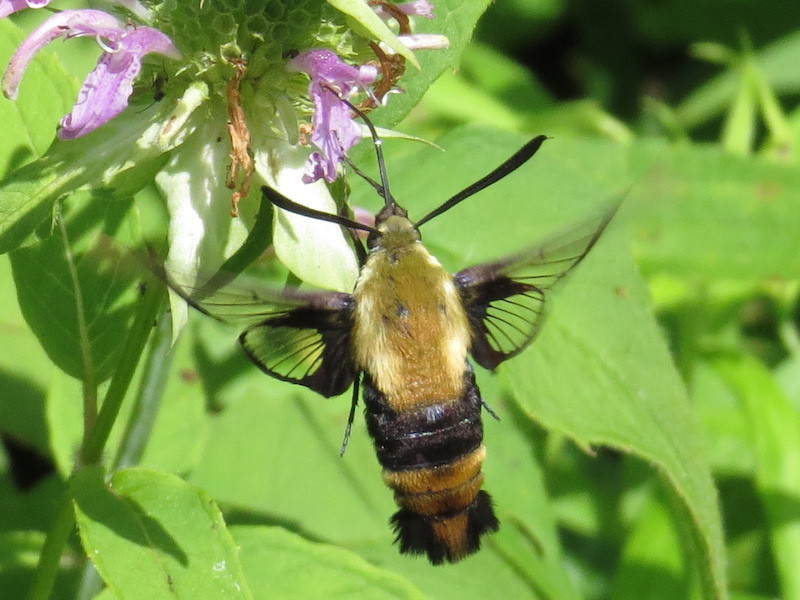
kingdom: Animalia
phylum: Arthropoda
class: Insecta
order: Lepidoptera
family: Sphingidae
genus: Hemaris
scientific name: Hemaris diffinis
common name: Bumblebee moth
